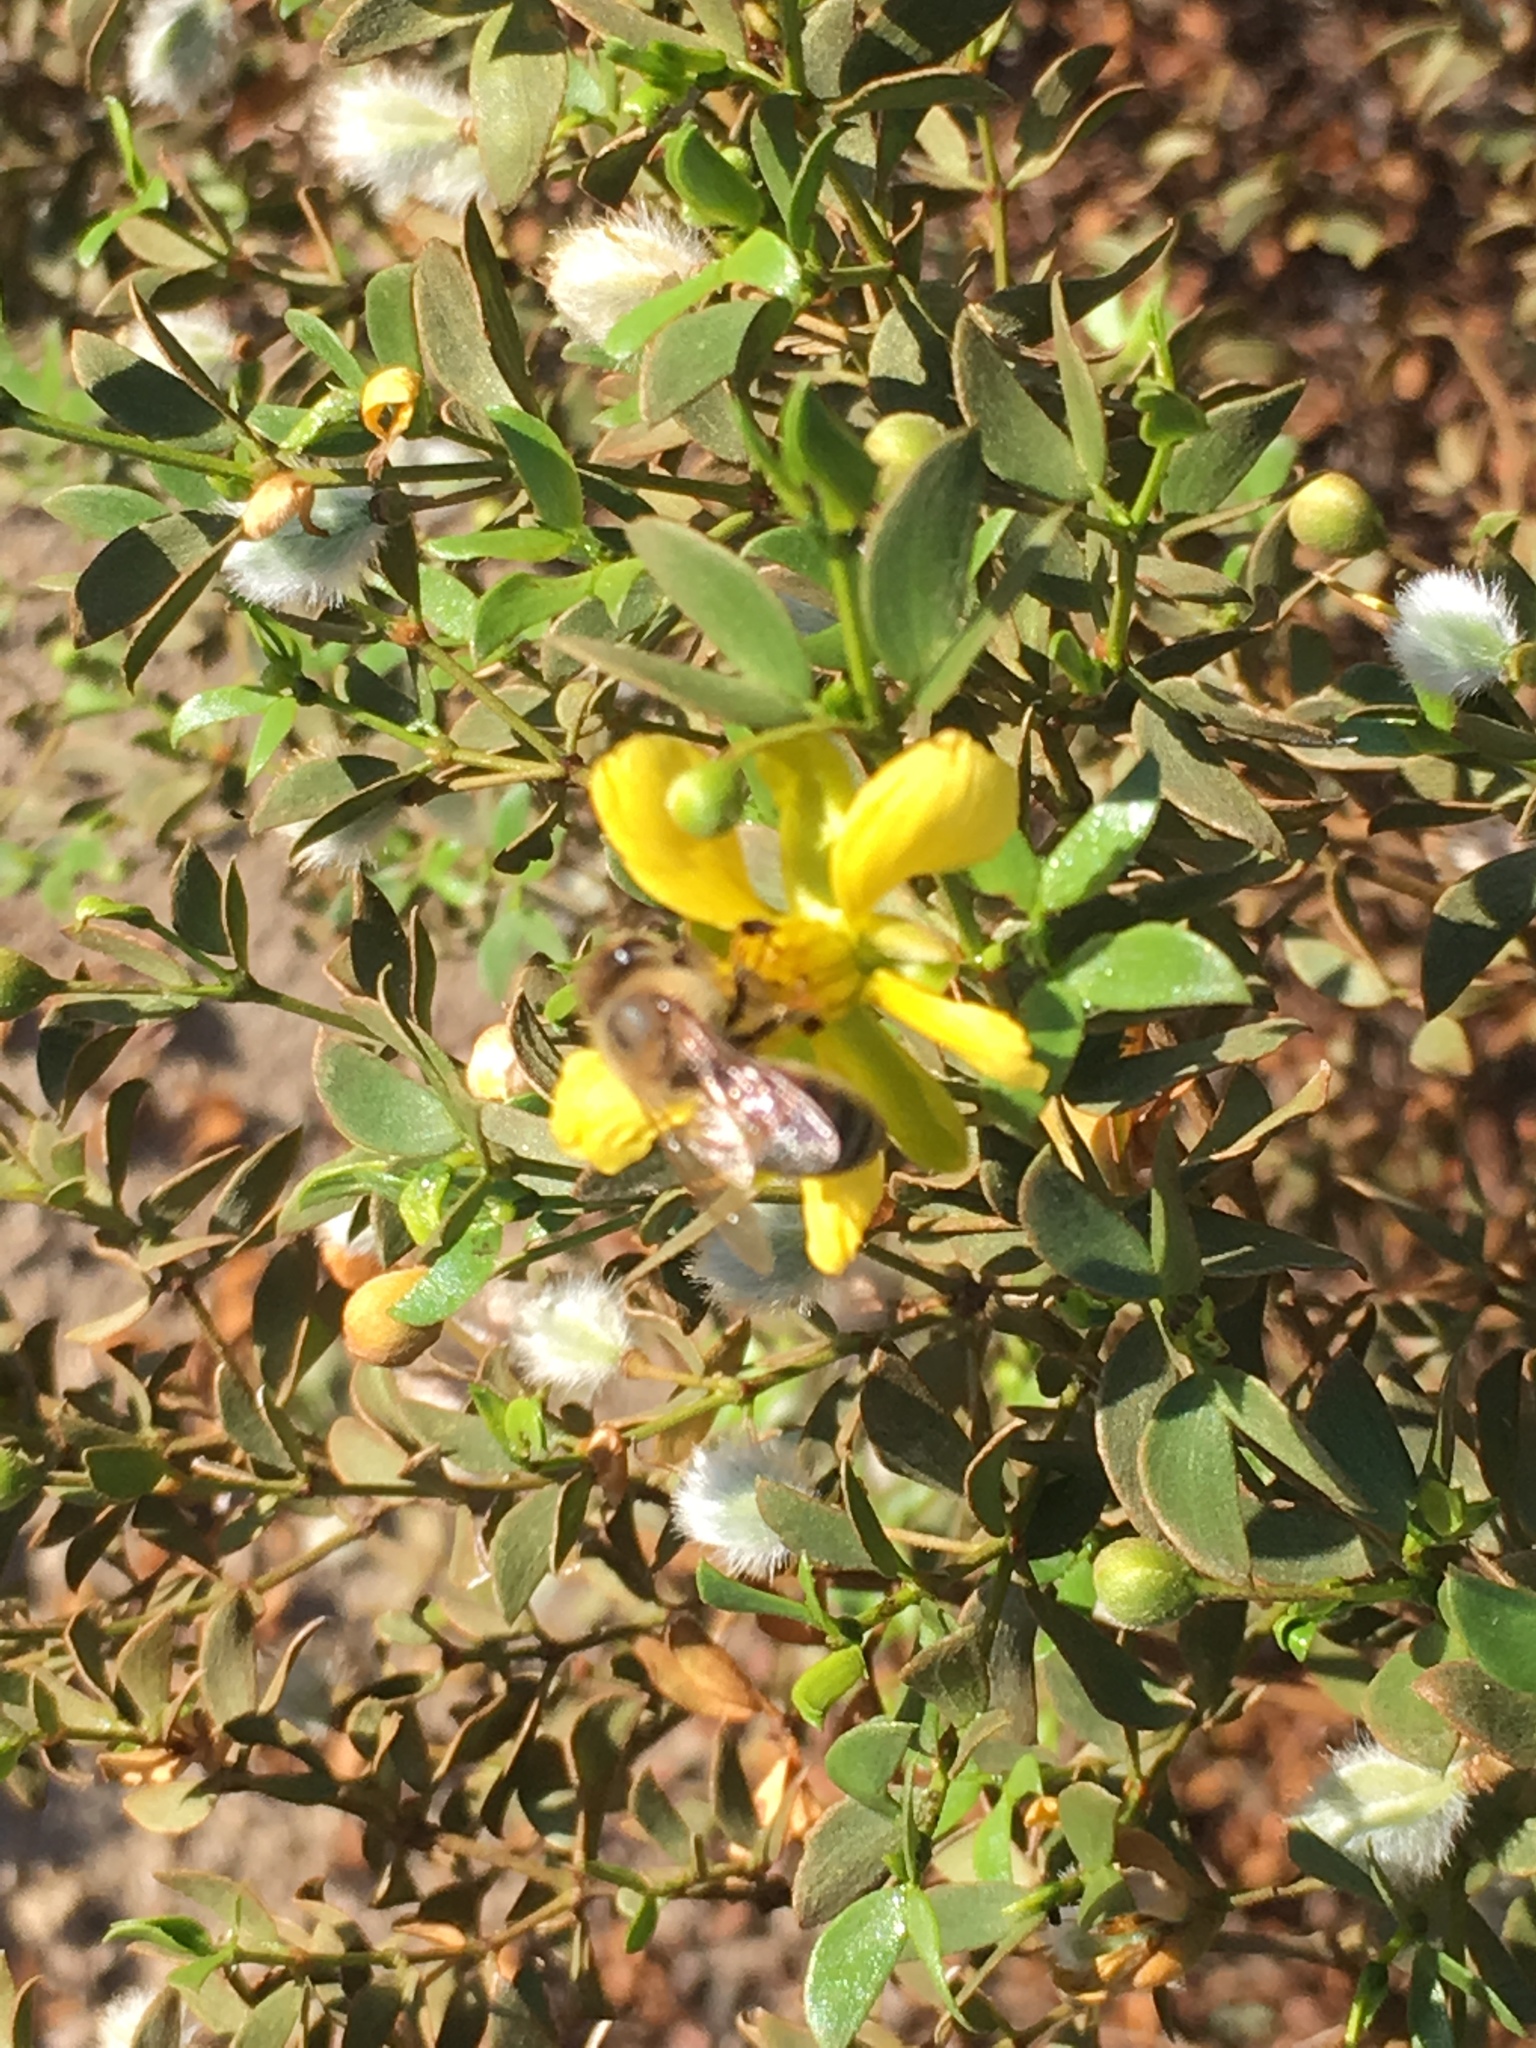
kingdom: Animalia
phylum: Arthropoda
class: Insecta
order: Hymenoptera
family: Apidae
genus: Apis
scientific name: Apis mellifera
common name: Honey bee
